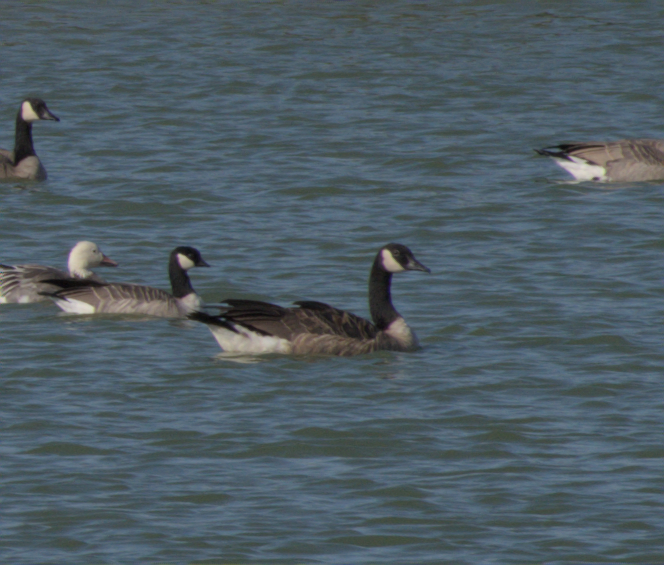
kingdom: Animalia
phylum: Chordata
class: Aves
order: Anseriformes
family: Anatidae
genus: Branta
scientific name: Branta canadensis
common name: Canada goose
